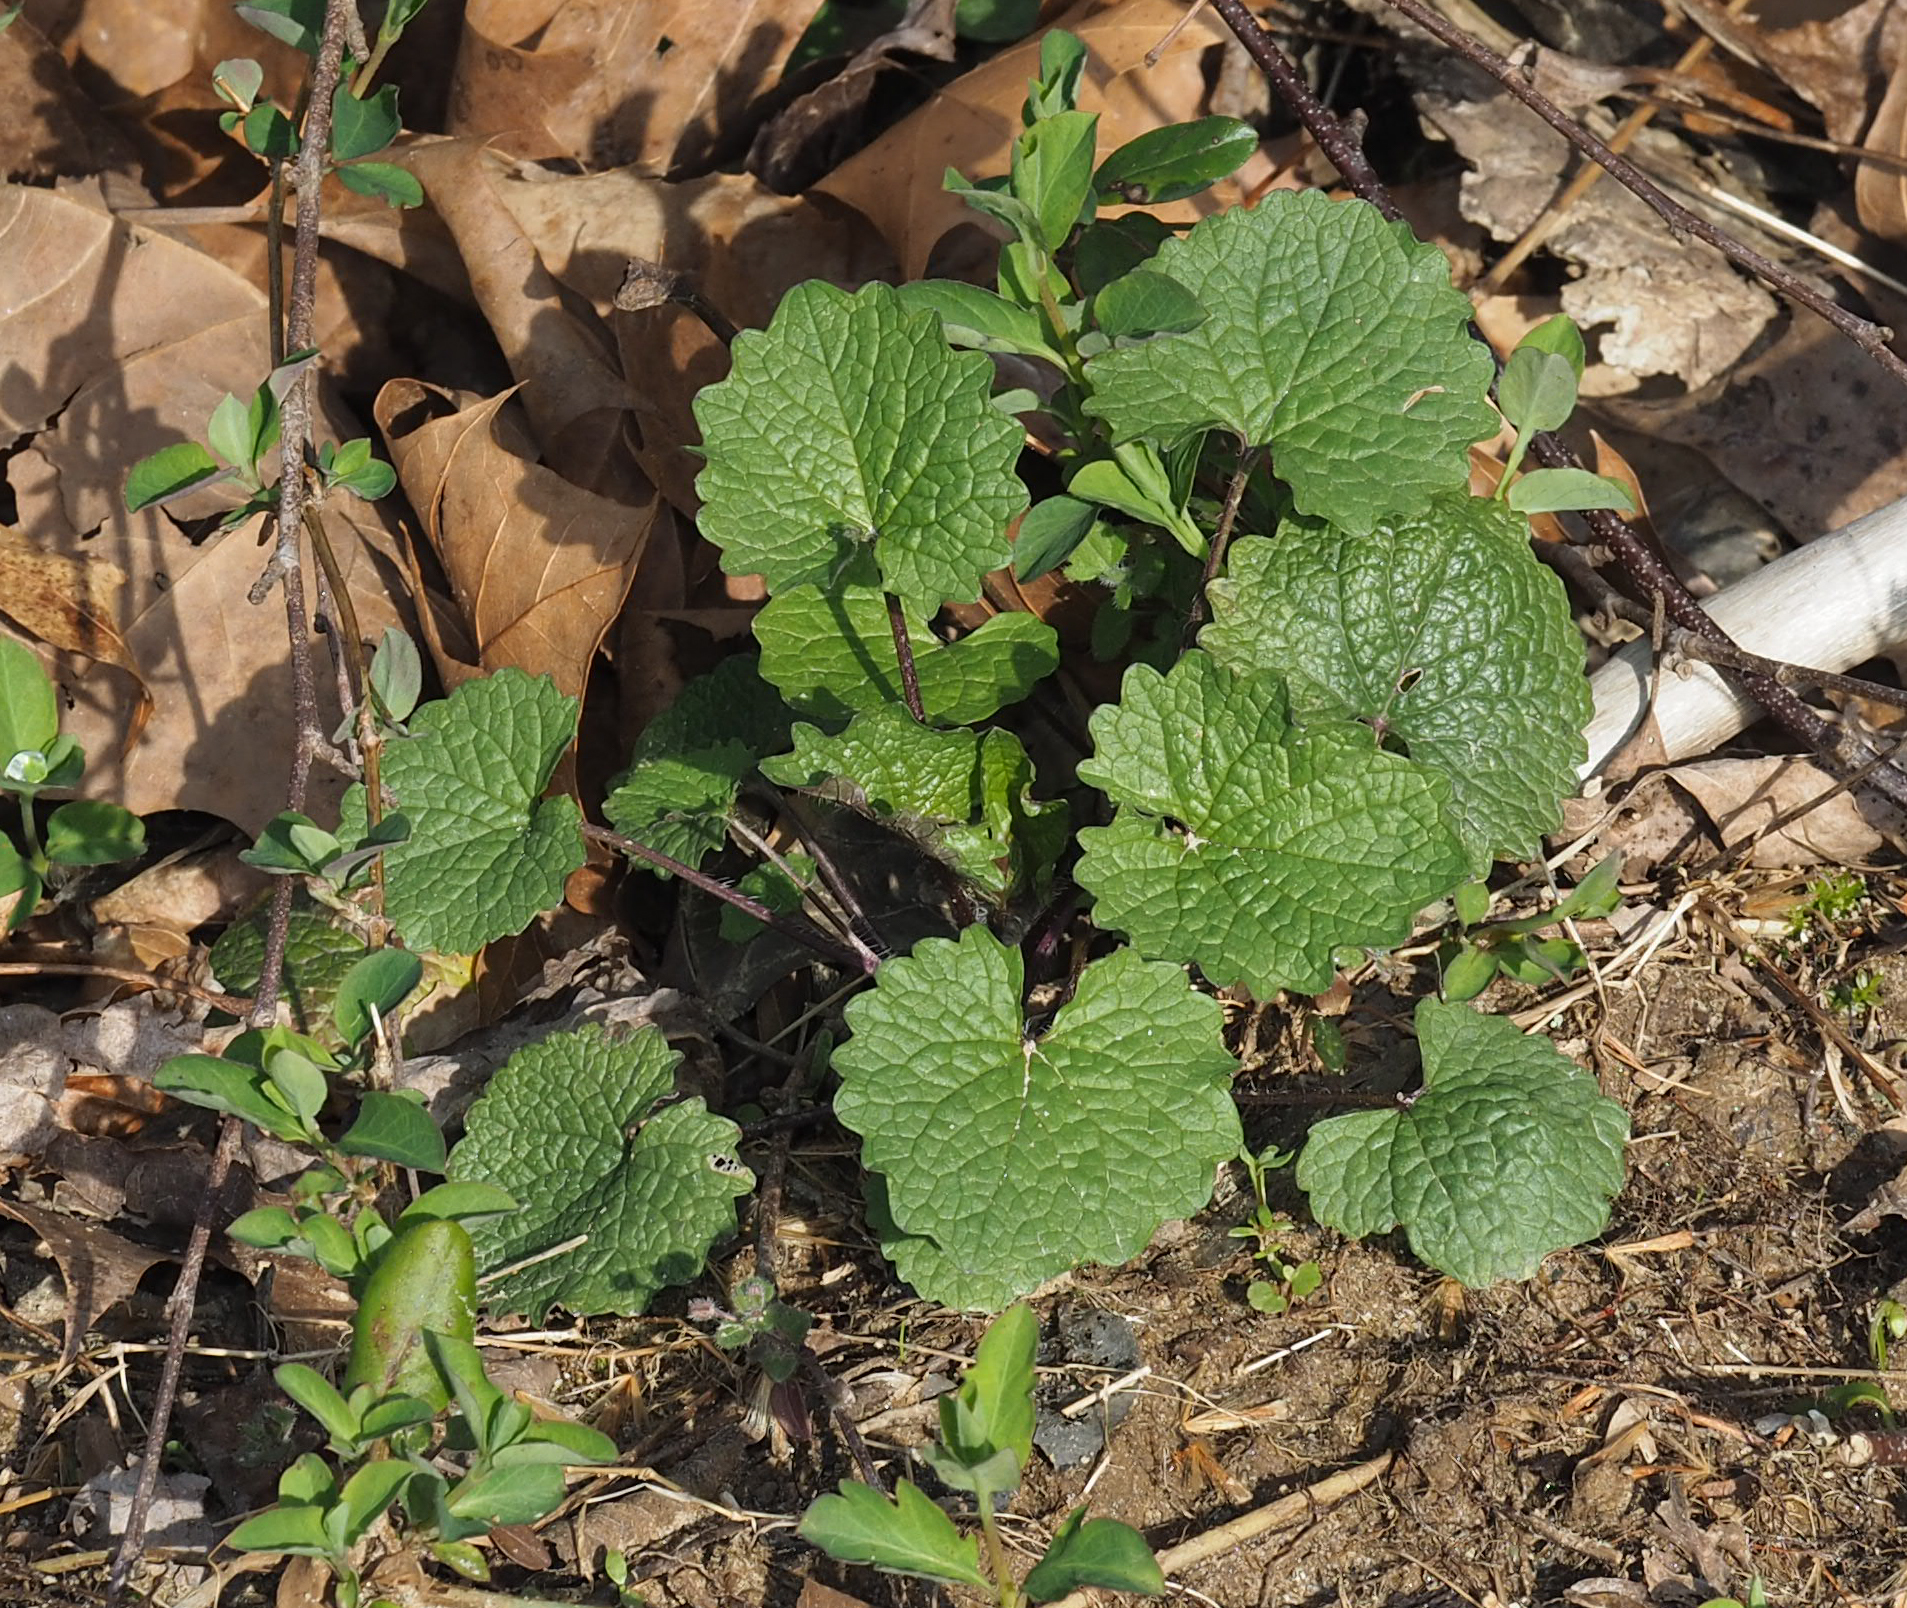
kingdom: Plantae
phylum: Tracheophyta
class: Magnoliopsida
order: Brassicales
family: Brassicaceae
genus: Alliaria
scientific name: Alliaria petiolata
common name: Garlic mustard
